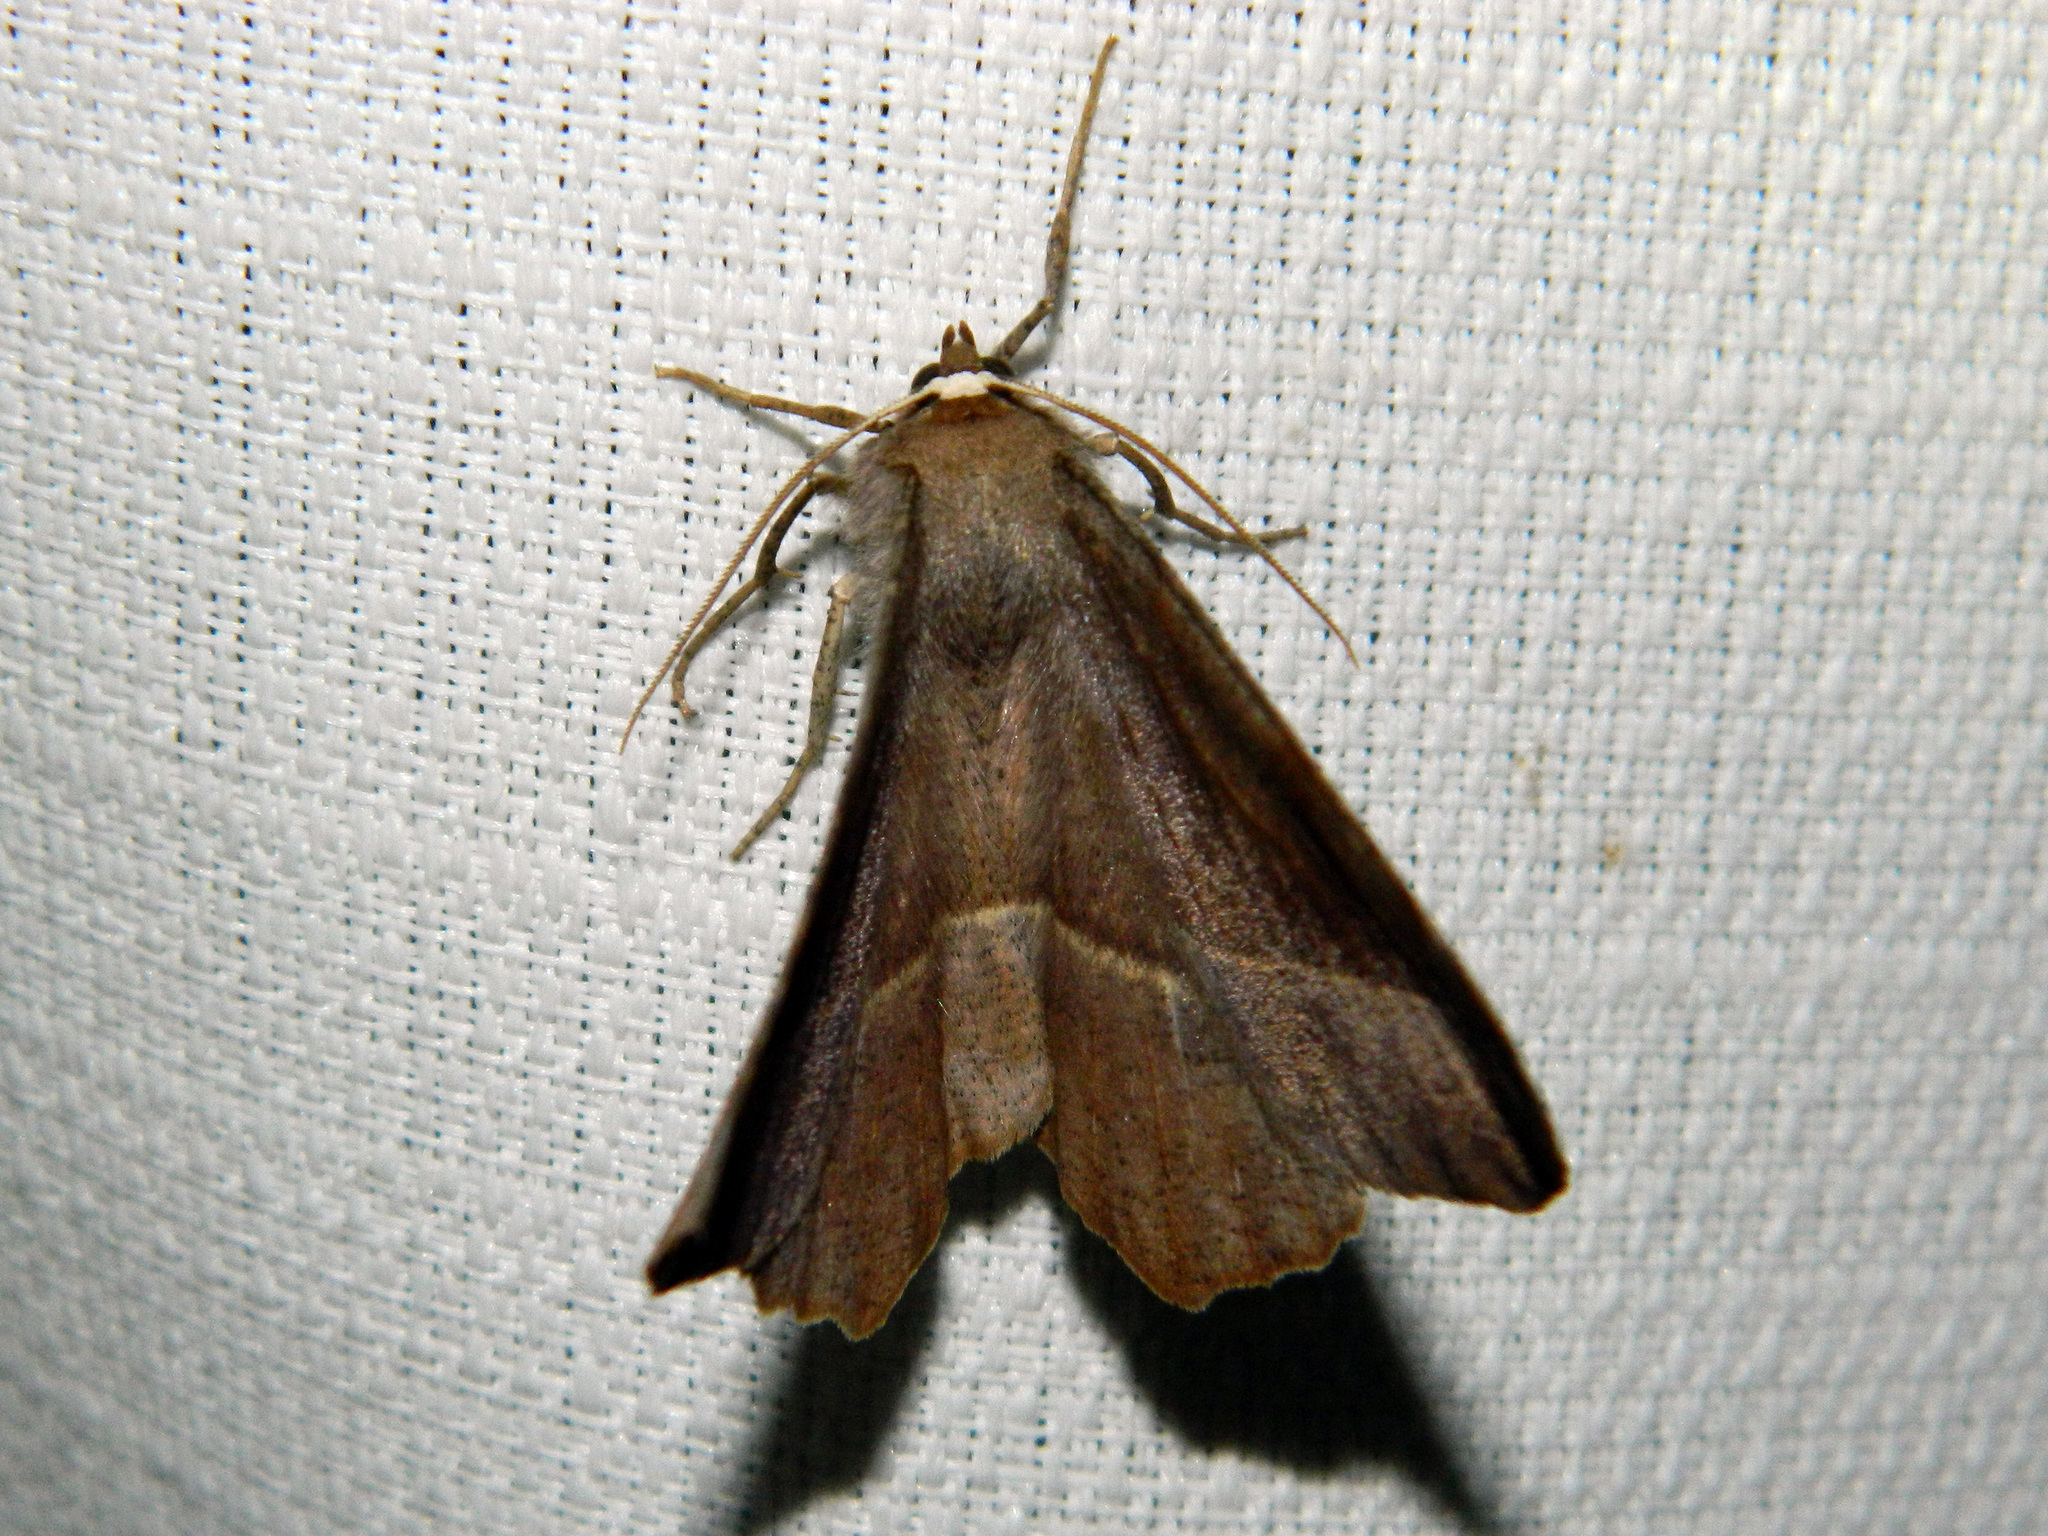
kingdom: Animalia
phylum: Arthropoda
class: Insecta
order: Lepidoptera
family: Geometridae
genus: Eutrapela
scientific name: Eutrapela clemataria
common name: Curved-toothed geometer
